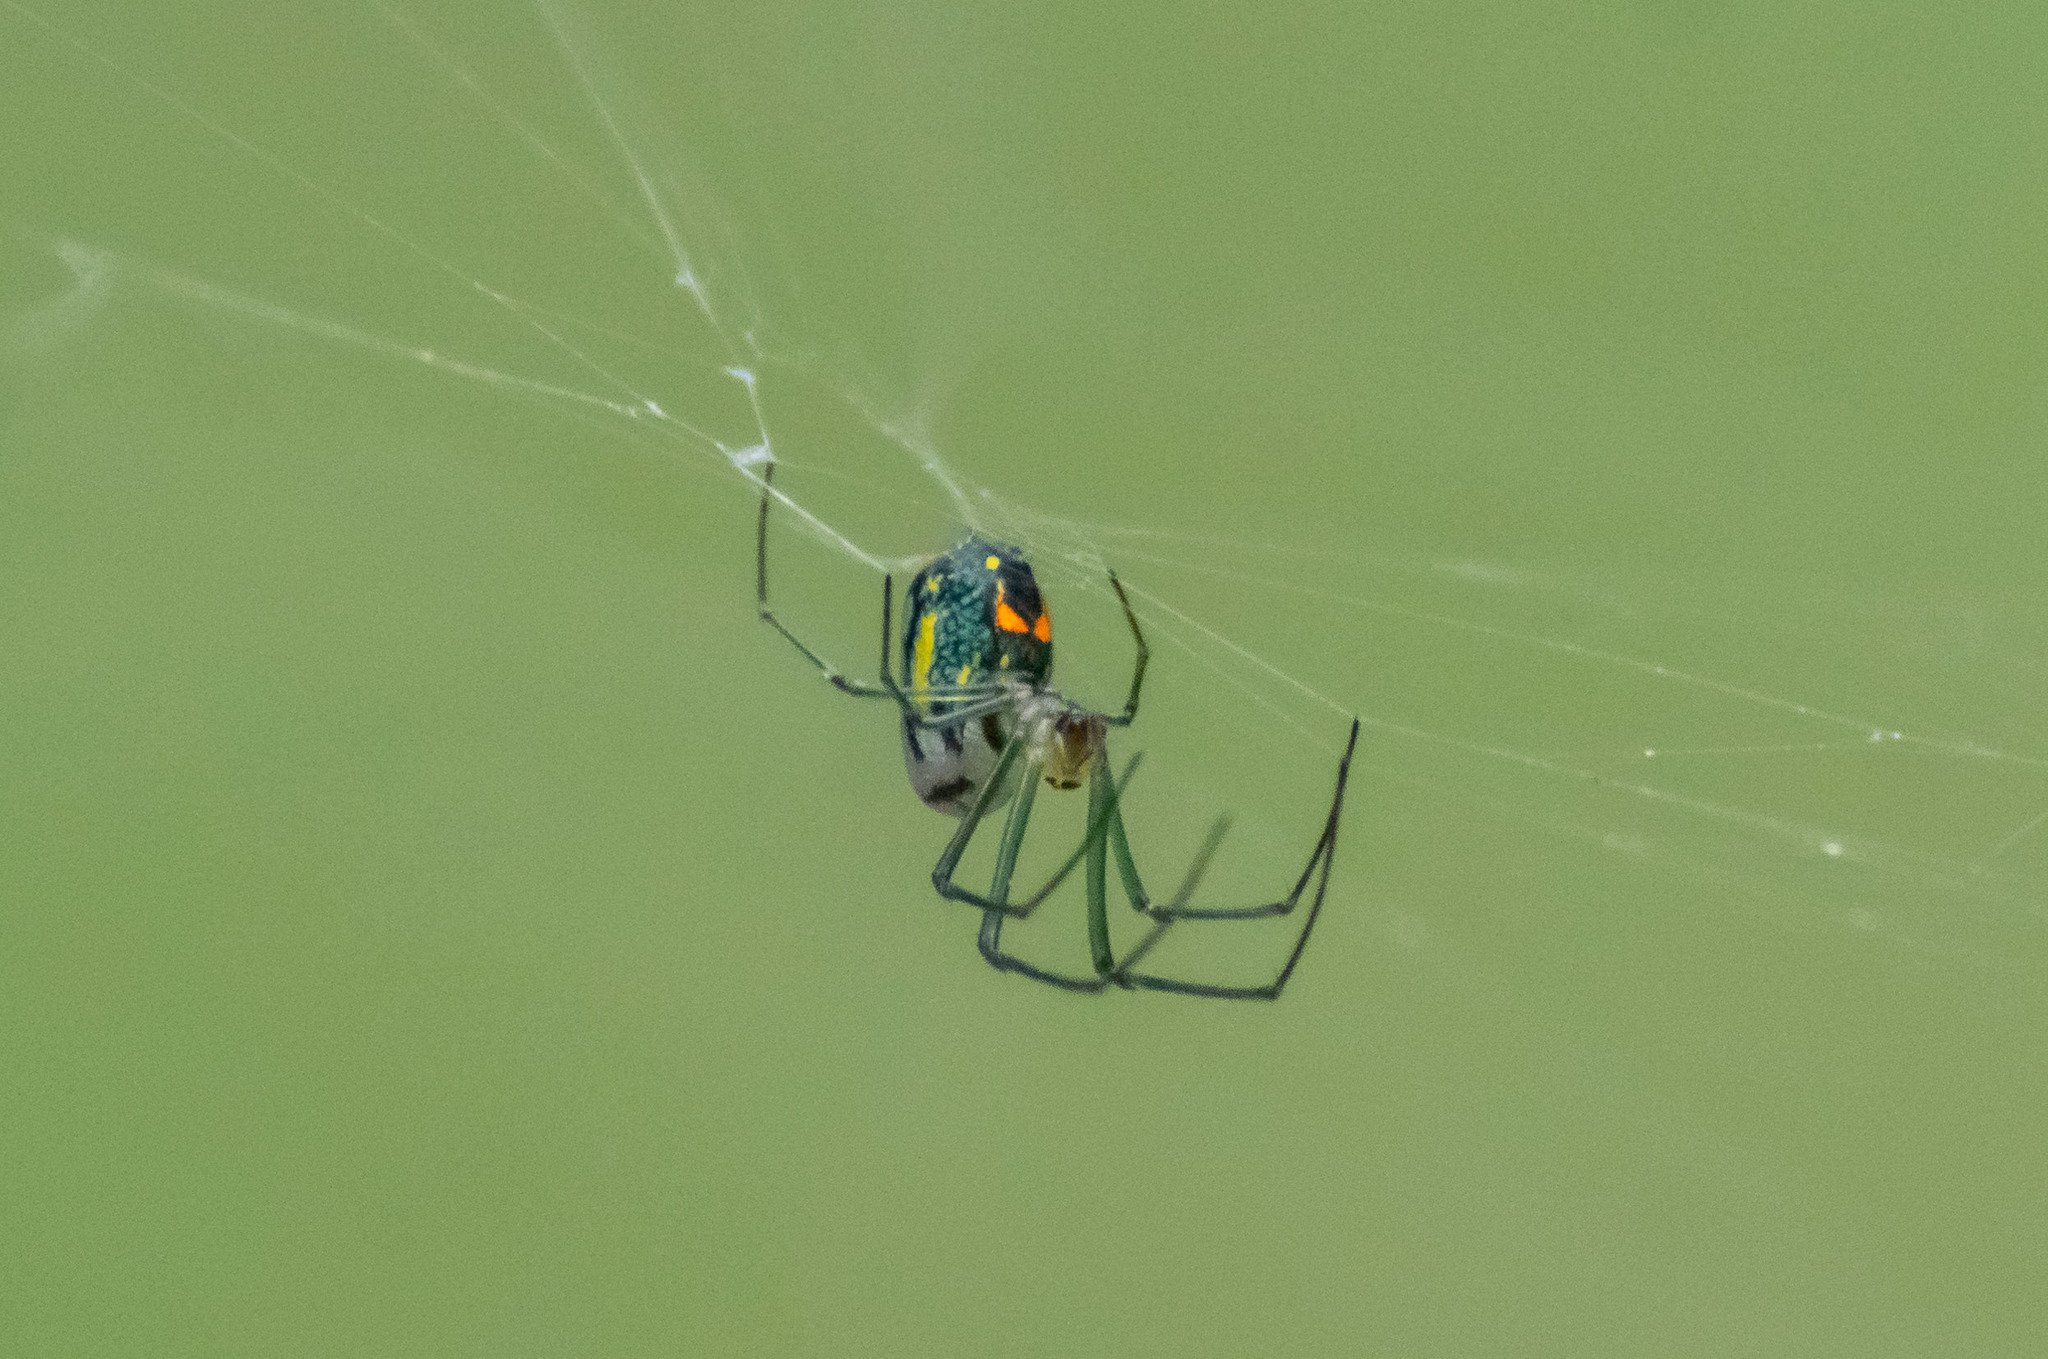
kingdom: Animalia
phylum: Arthropoda
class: Arachnida
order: Araneae
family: Tetragnathidae
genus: Leucauge
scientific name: Leucauge argyrobapta
